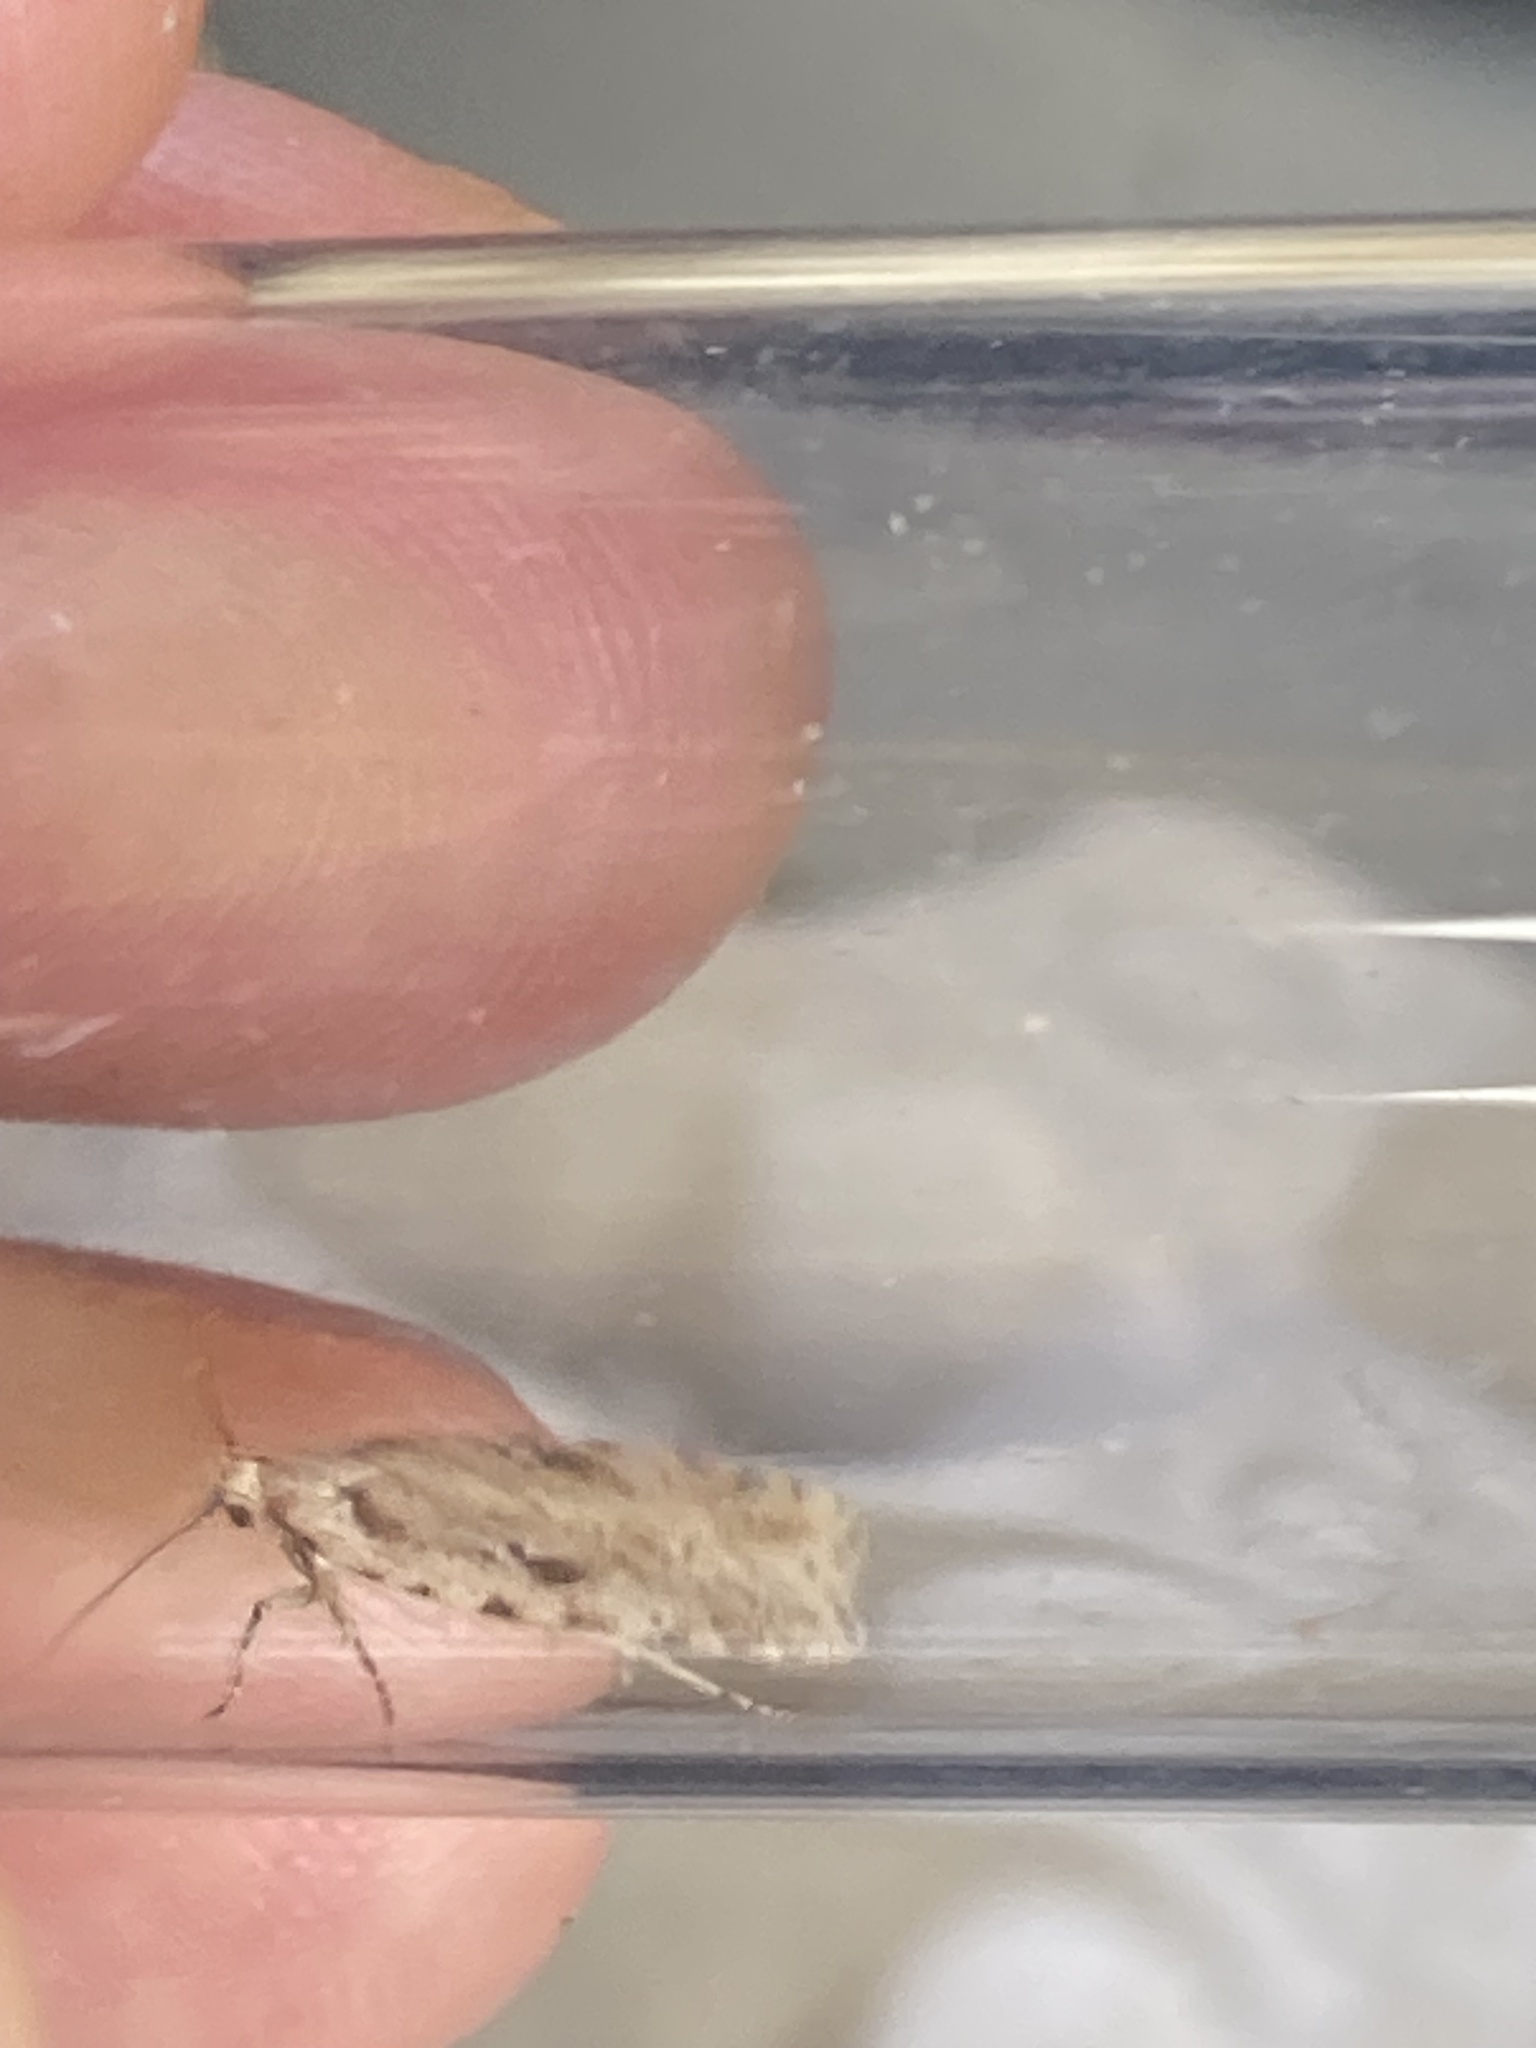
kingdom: Animalia
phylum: Arthropoda
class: Insecta
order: Lepidoptera
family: Depressariidae
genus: Agonopterix
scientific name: Agonopterix arenella
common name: Brindled flat-body
